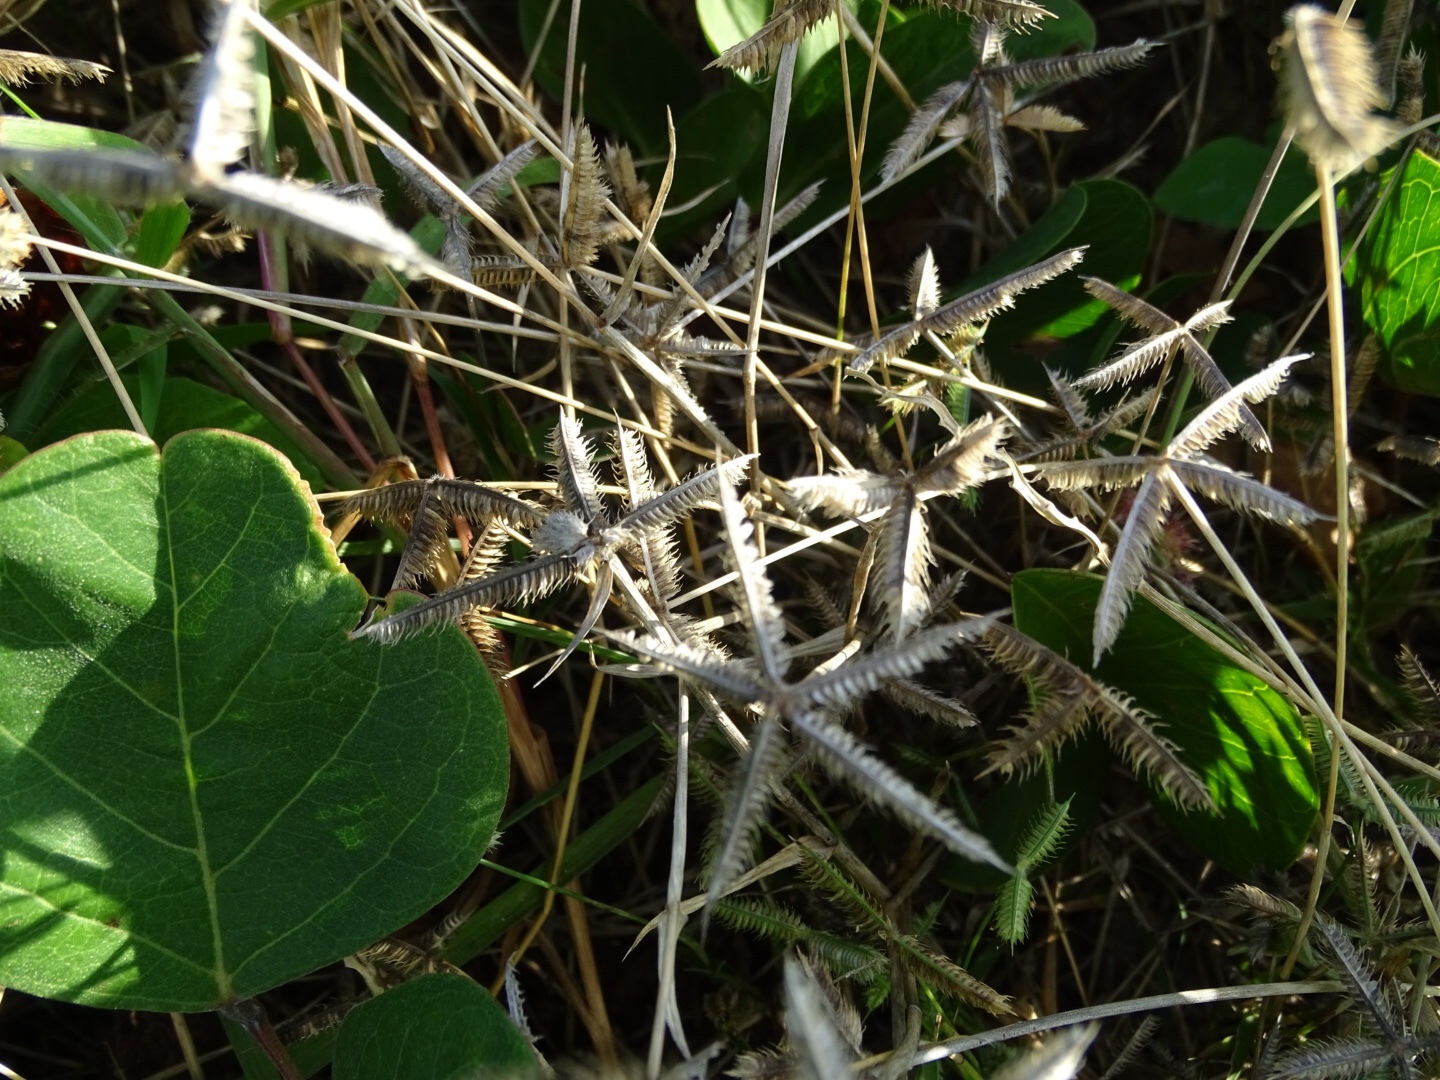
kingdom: Plantae
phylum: Tracheophyta
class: Liliopsida
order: Poales
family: Poaceae
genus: Dactyloctenium
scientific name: Dactyloctenium aegyptium
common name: Egyptian grass
